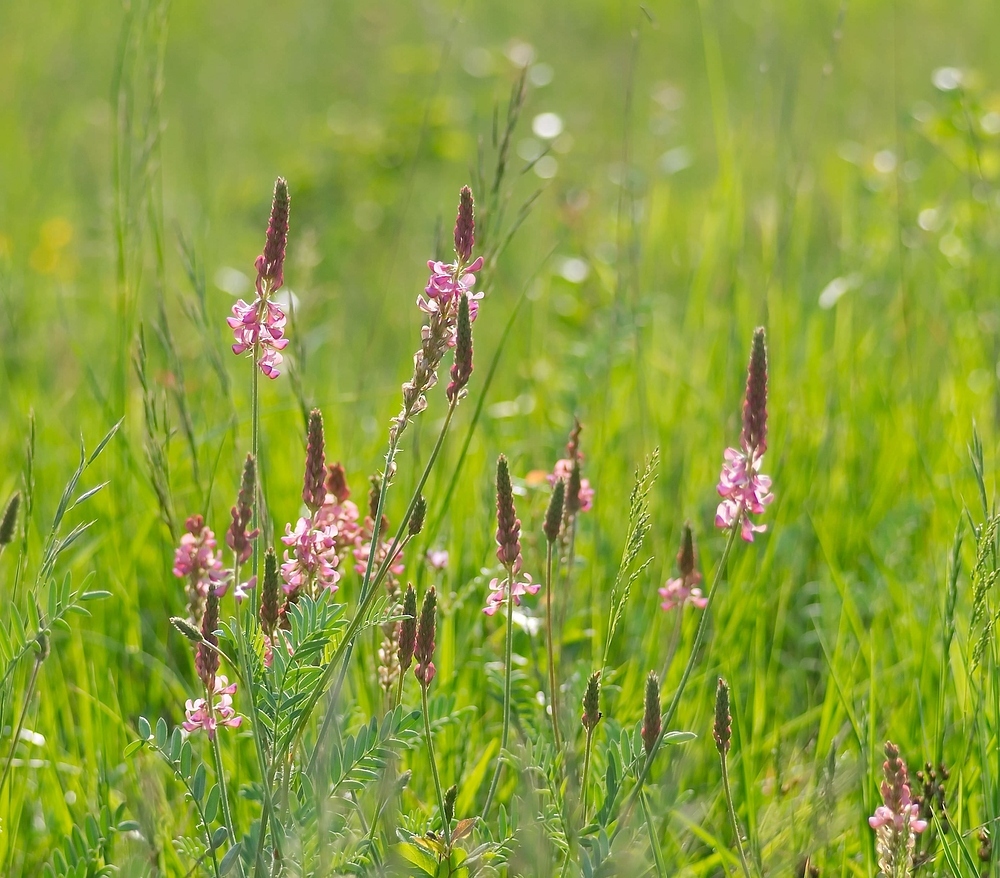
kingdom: Plantae
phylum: Tracheophyta
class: Magnoliopsida
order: Fabales
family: Fabaceae
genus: Onobrychis
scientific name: Onobrychis viciifolia
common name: Sainfoin
